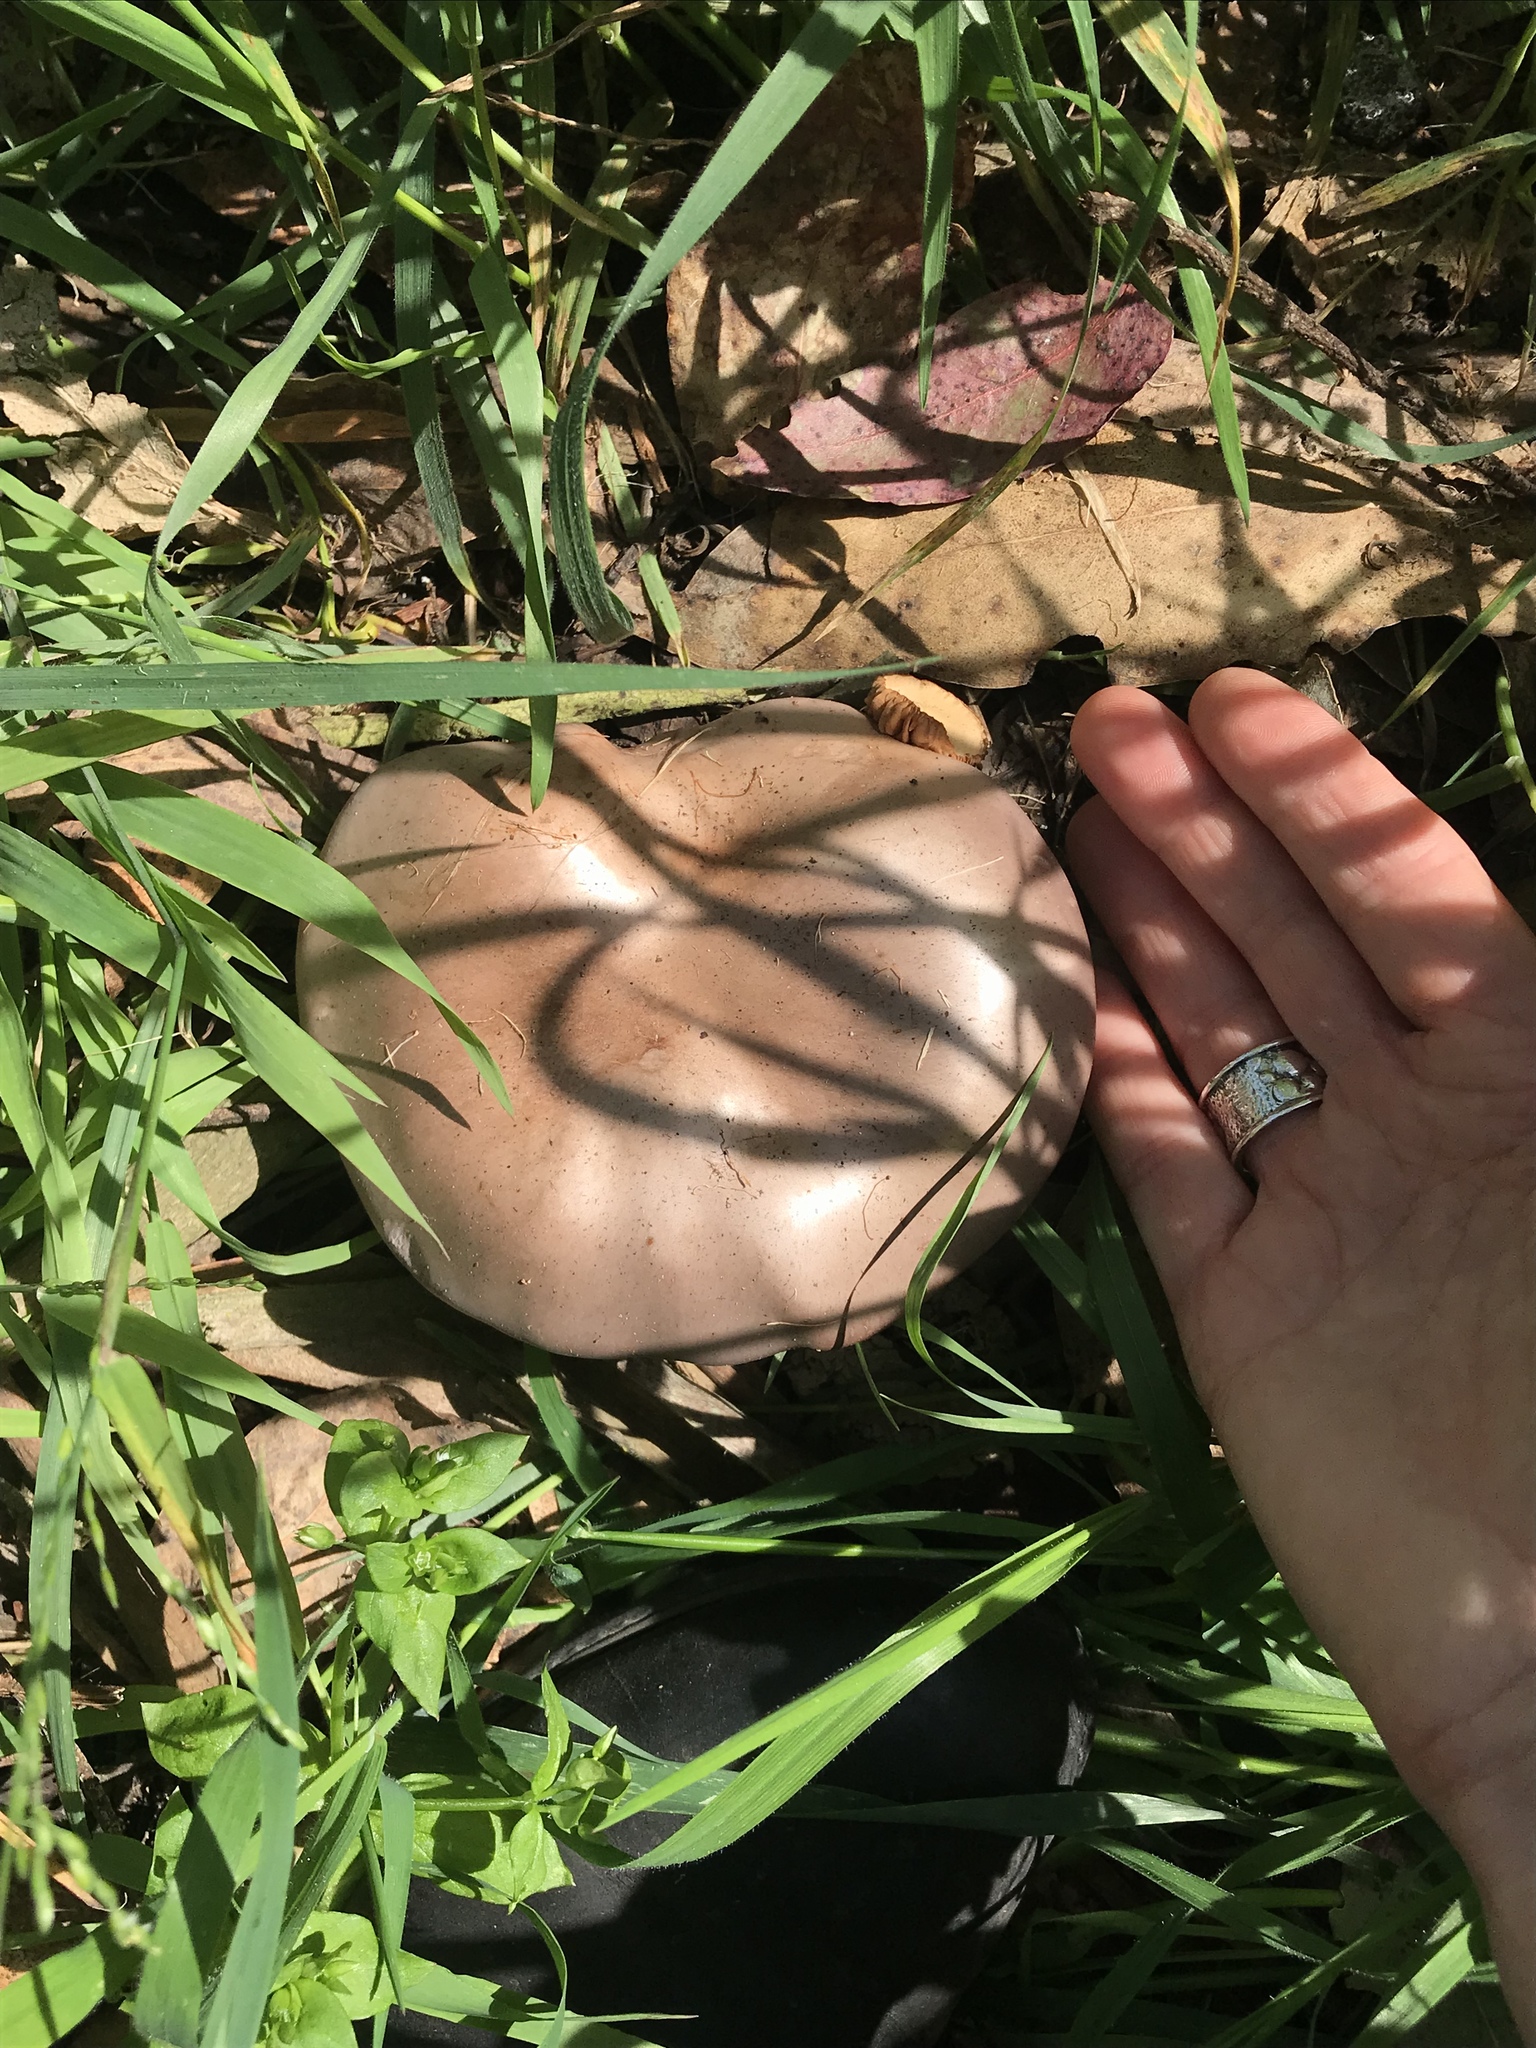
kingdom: Fungi
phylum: Basidiomycota
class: Agaricomycetes
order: Agaricales
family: Tricholomataceae
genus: Collybia
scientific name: Collybia
